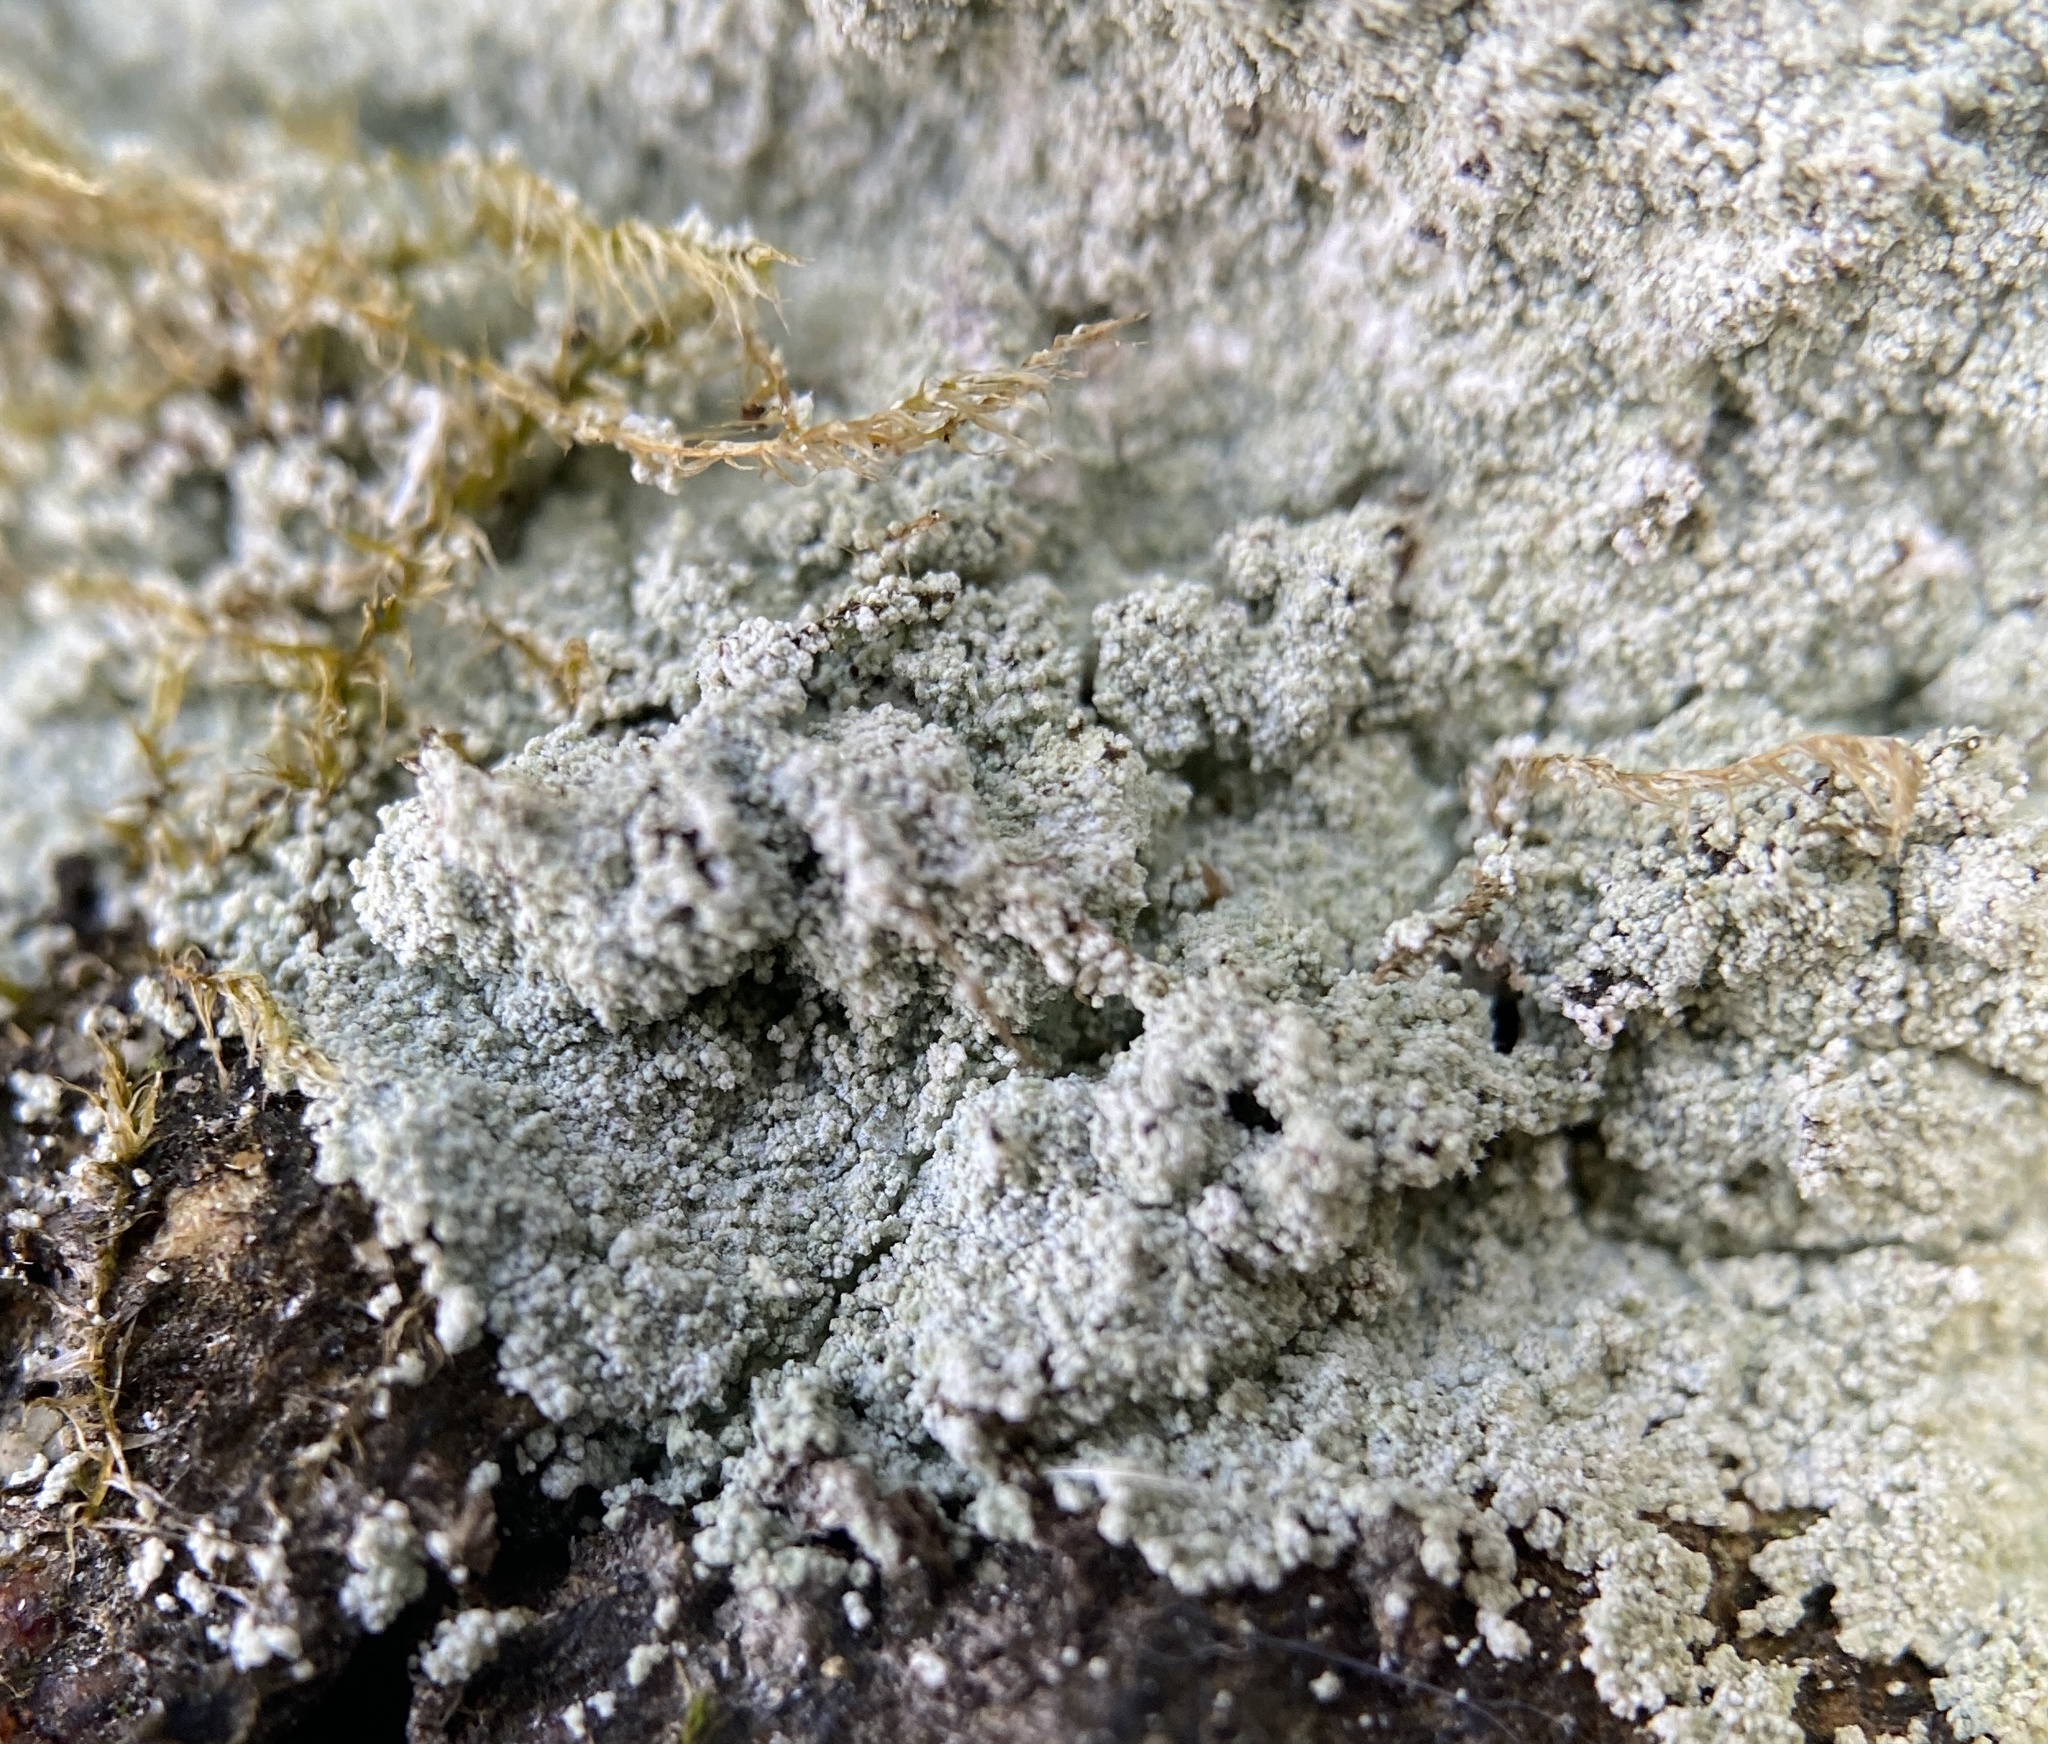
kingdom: Fungi
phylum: Ascomycota
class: Lecanoromycetes
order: Lecanorales
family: Stereocaulaceae
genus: Lepraria
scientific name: Lepraria lobificans
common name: Fluffy dust lichen
